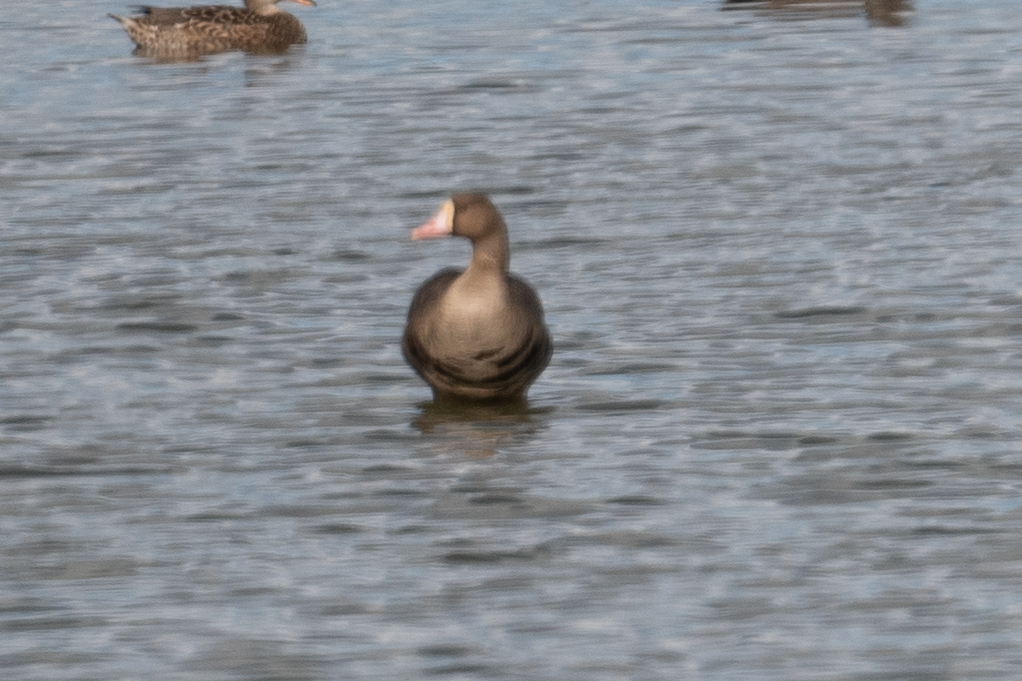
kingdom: Animalia
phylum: Chordata
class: Aves
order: Anseriformes
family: Anatidae
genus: Anser
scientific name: Anser albifrons
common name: Greater white-fronted goose
